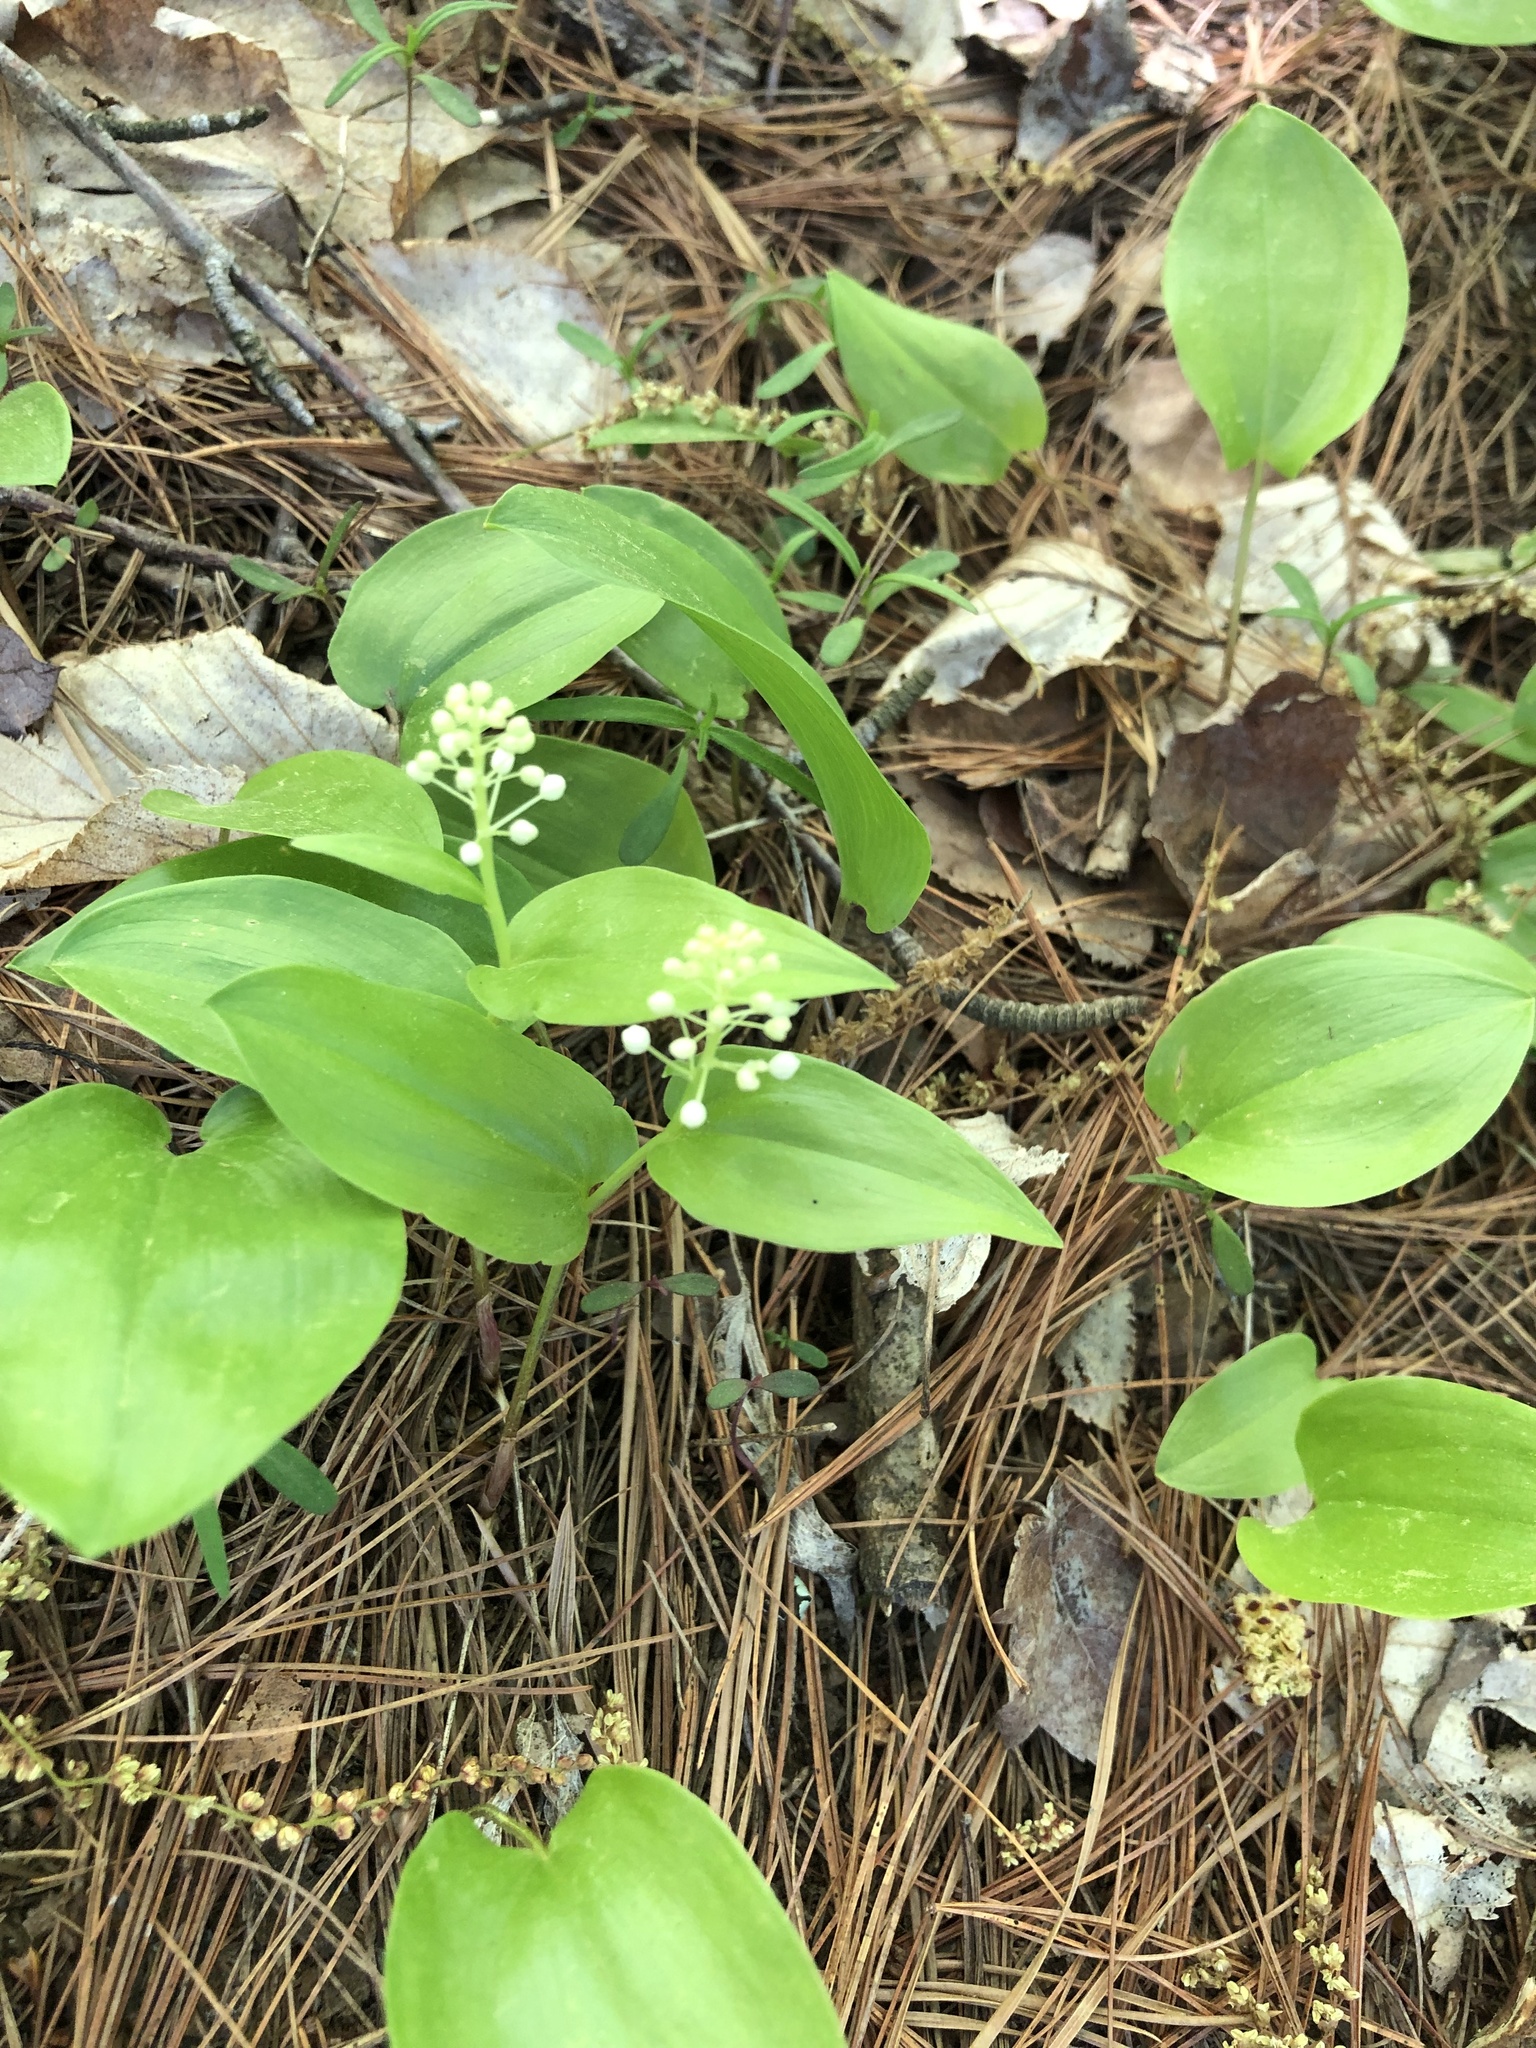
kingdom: Plantae
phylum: Tracheophyta
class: Liliopsida
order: Asparagales
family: Asparagaceae
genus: Maianthemum
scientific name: Maianthemum canadense
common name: False lily-of-the-valley
